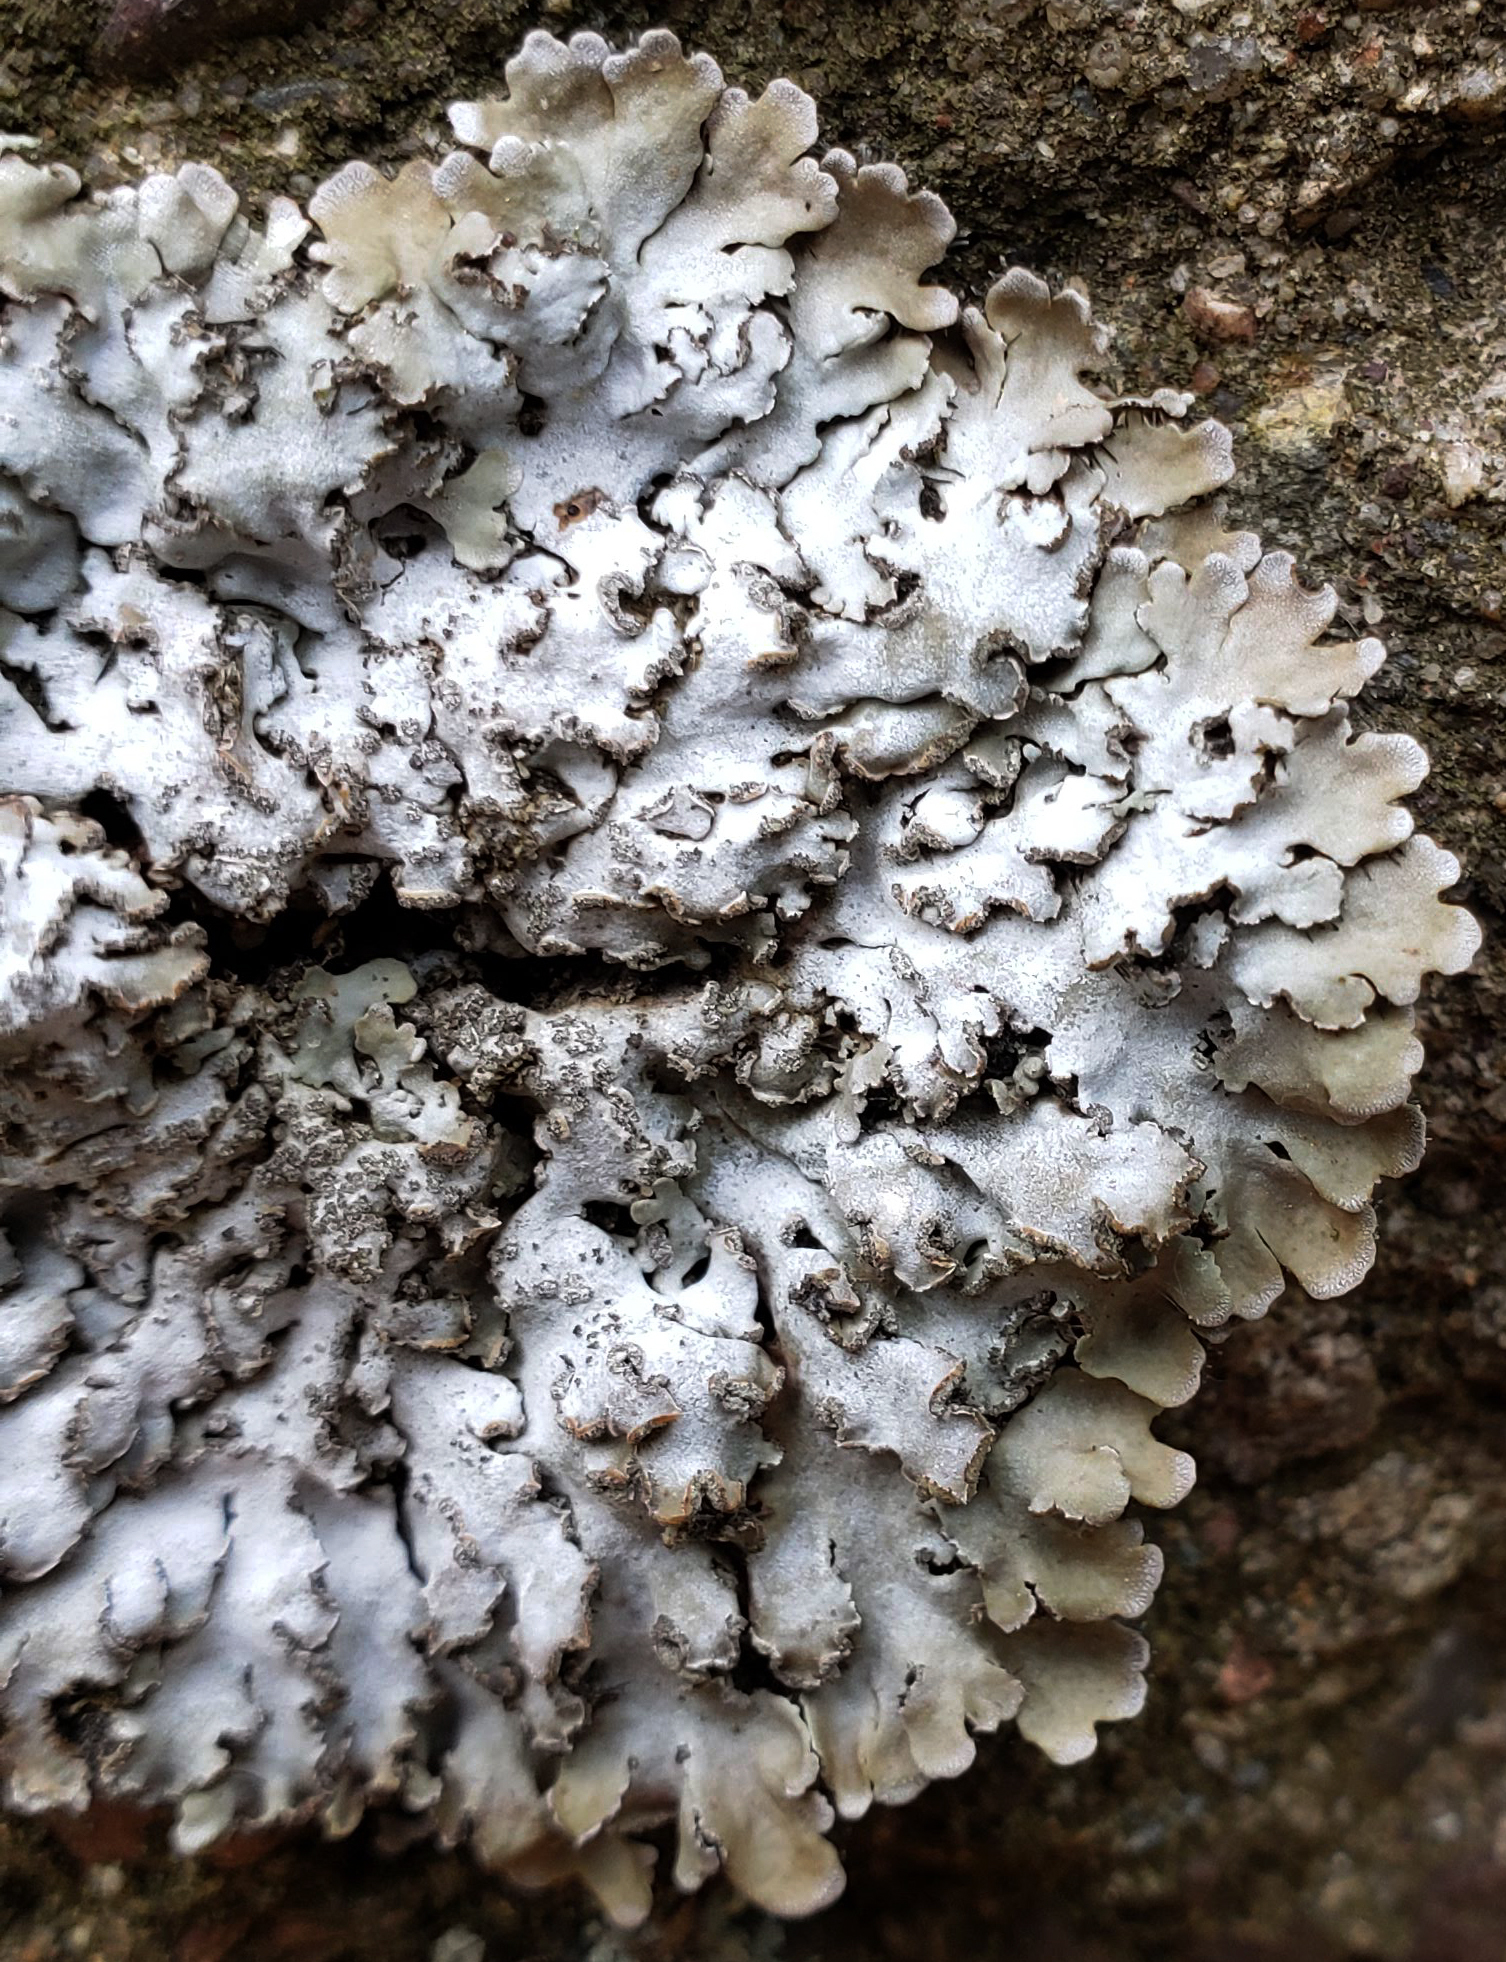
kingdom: Fungi
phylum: Ascomycota
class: Lecanoromycetes
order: Caliciales
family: Physciaceae
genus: Physconia
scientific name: Physconia detersa
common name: Bottlebrush frost lichen
